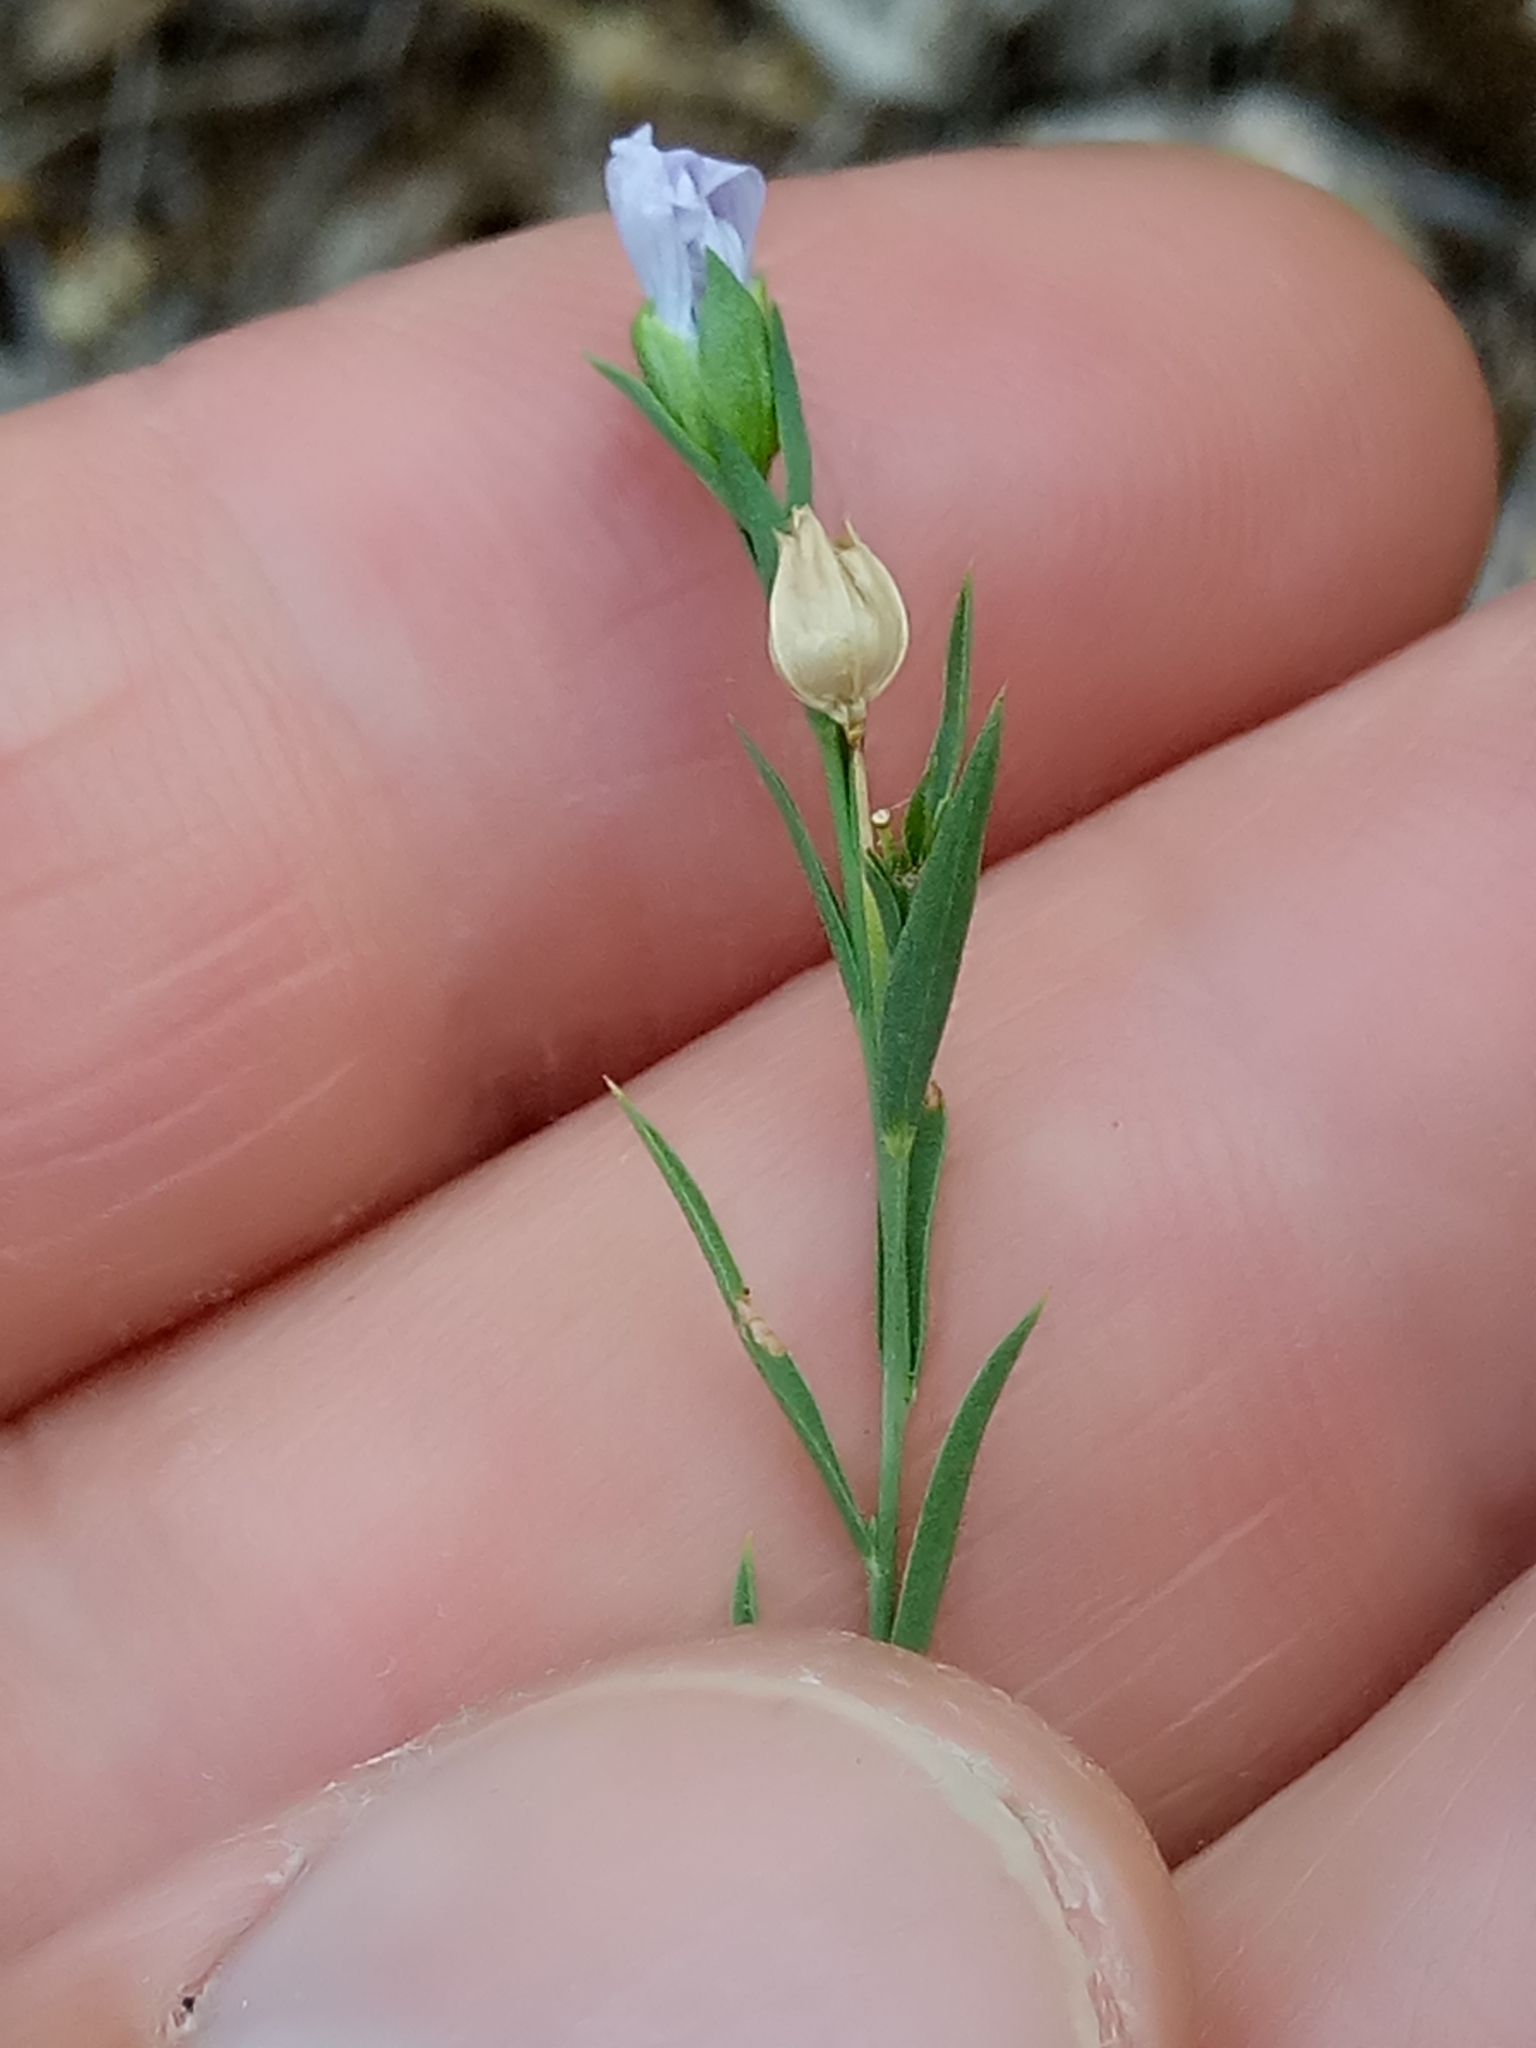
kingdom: Plantae
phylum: Tracheophyta
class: Magnoliopsida
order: Lamiales
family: Lamiaceae
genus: Micromeria
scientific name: Micromeria graeca
